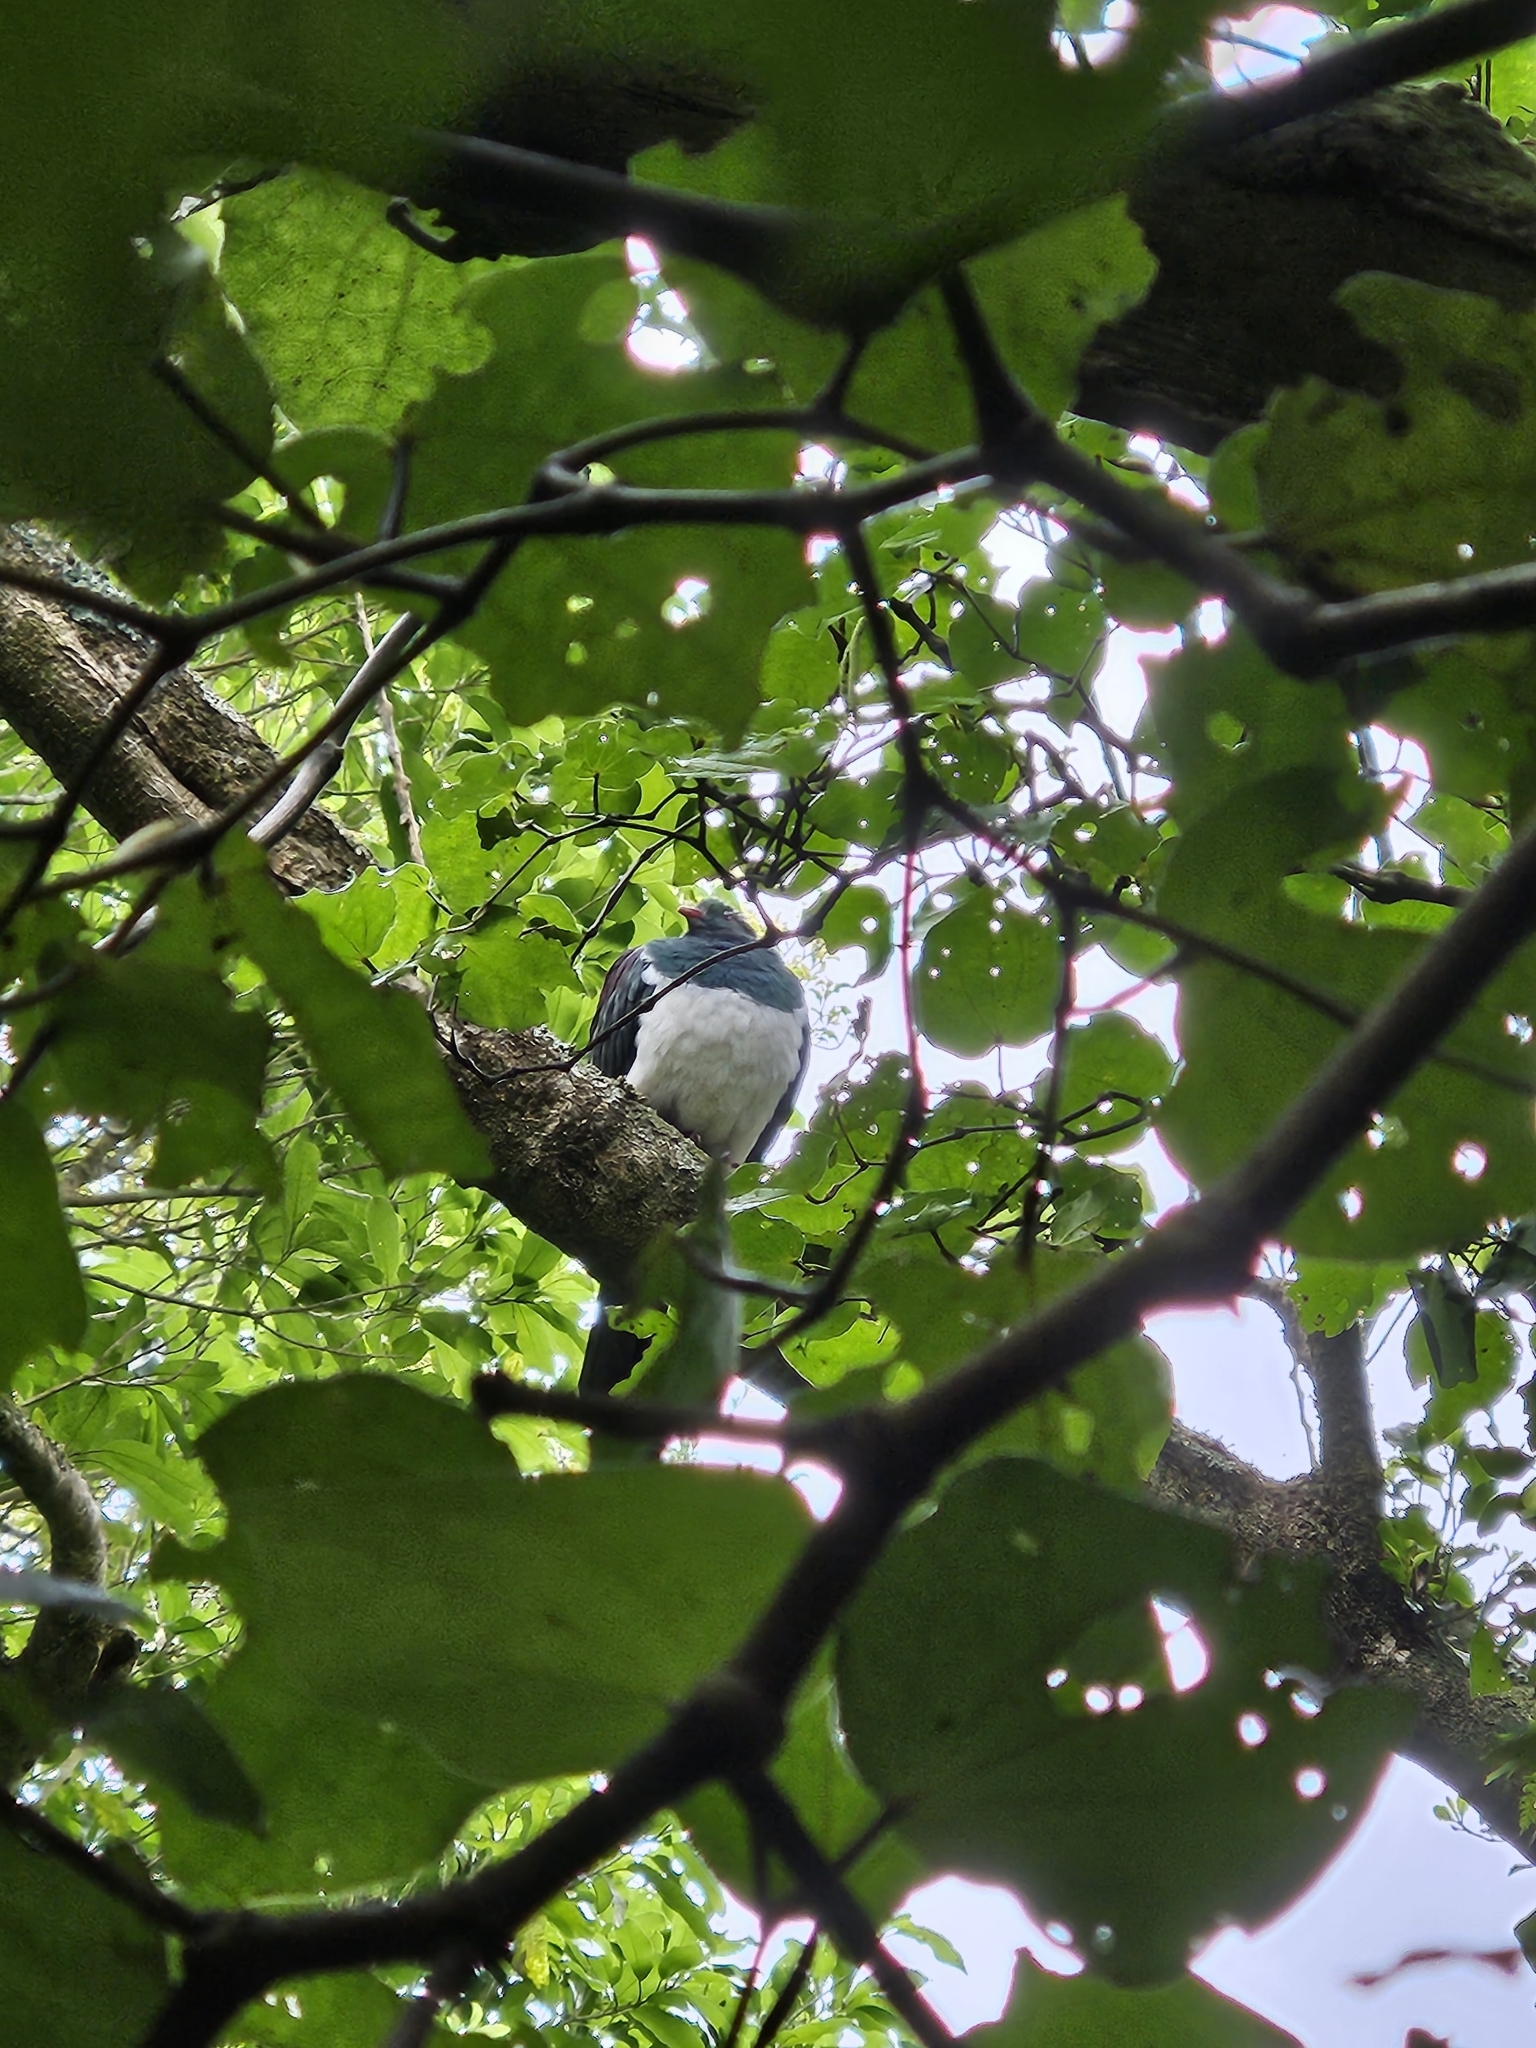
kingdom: Animalia
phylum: Chordata
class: Aves
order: Columbiformes
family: Columbidae
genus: Hemiphaga
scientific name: Hemiphaga novaeseelandiae
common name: New zealand pigeon
